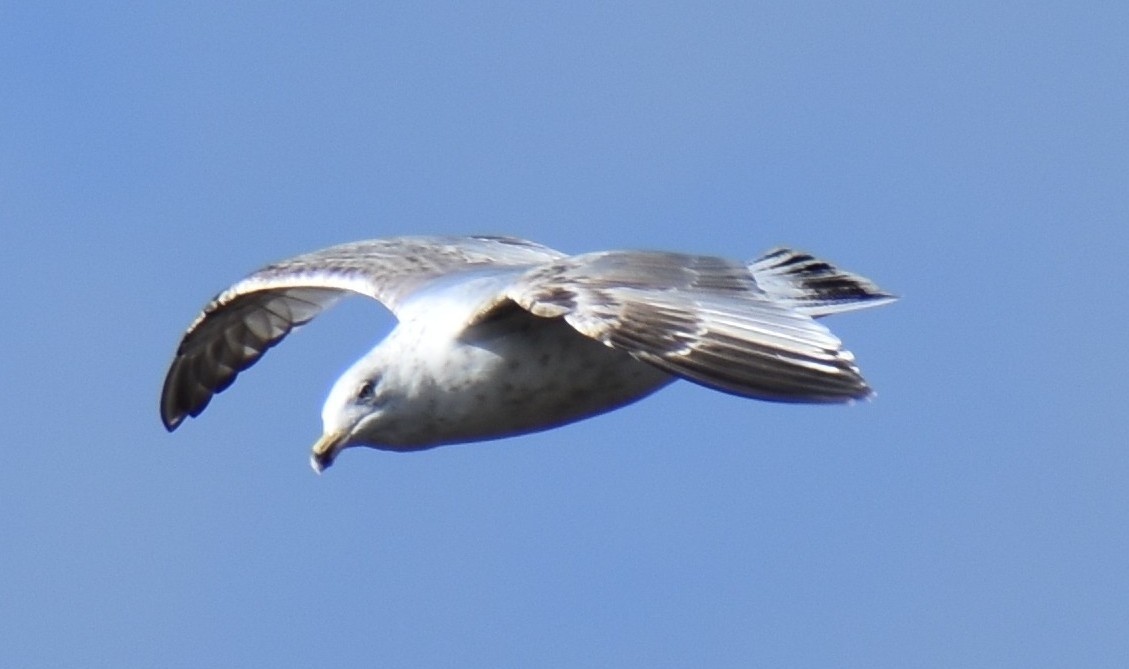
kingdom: Animalia
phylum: Chordata
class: Aves
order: Charadriiformes
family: Laridae
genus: Larus
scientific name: Larus argentatus
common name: Herring gull
